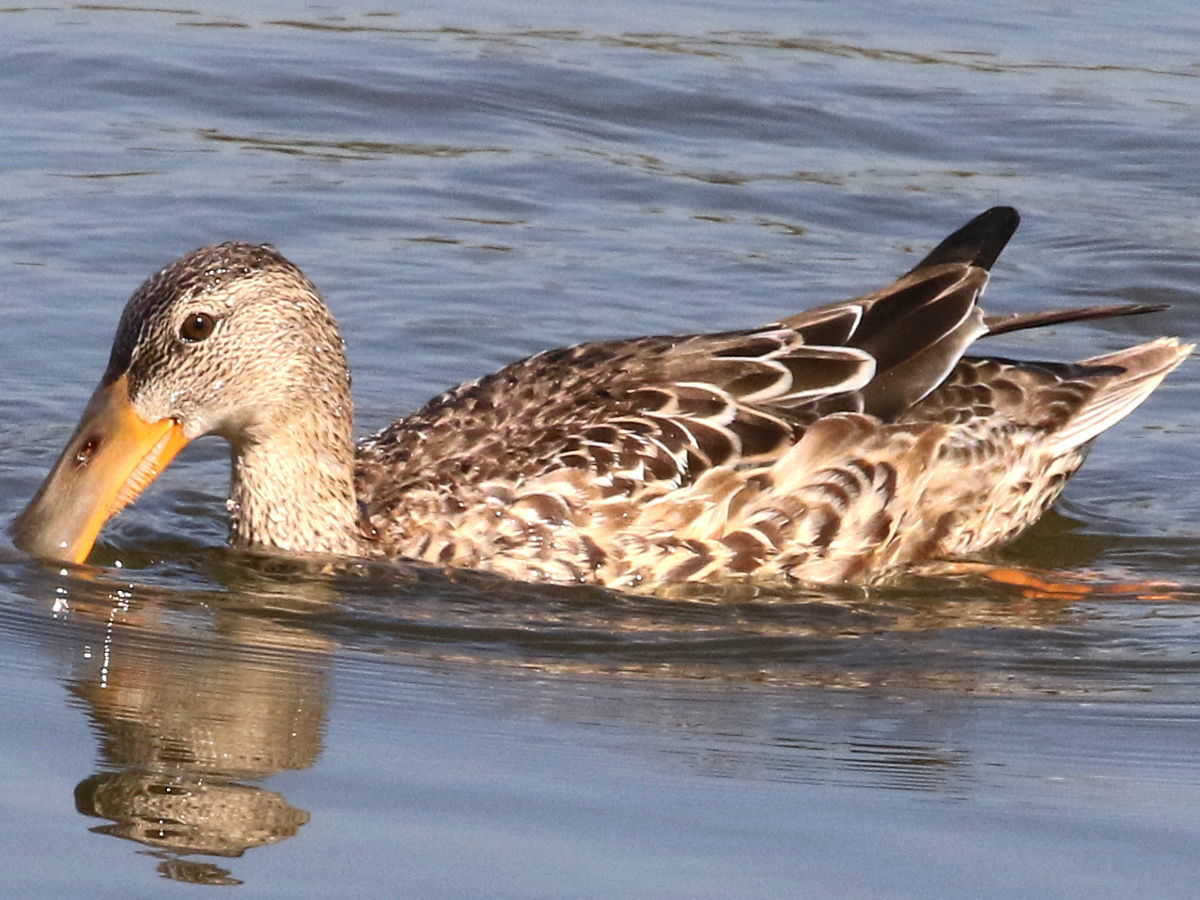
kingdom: Animalia
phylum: Chordata
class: Aves
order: Anseriformes
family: Anatidae
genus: Spatula
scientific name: Spatula clypeata
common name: Northern shoveler
